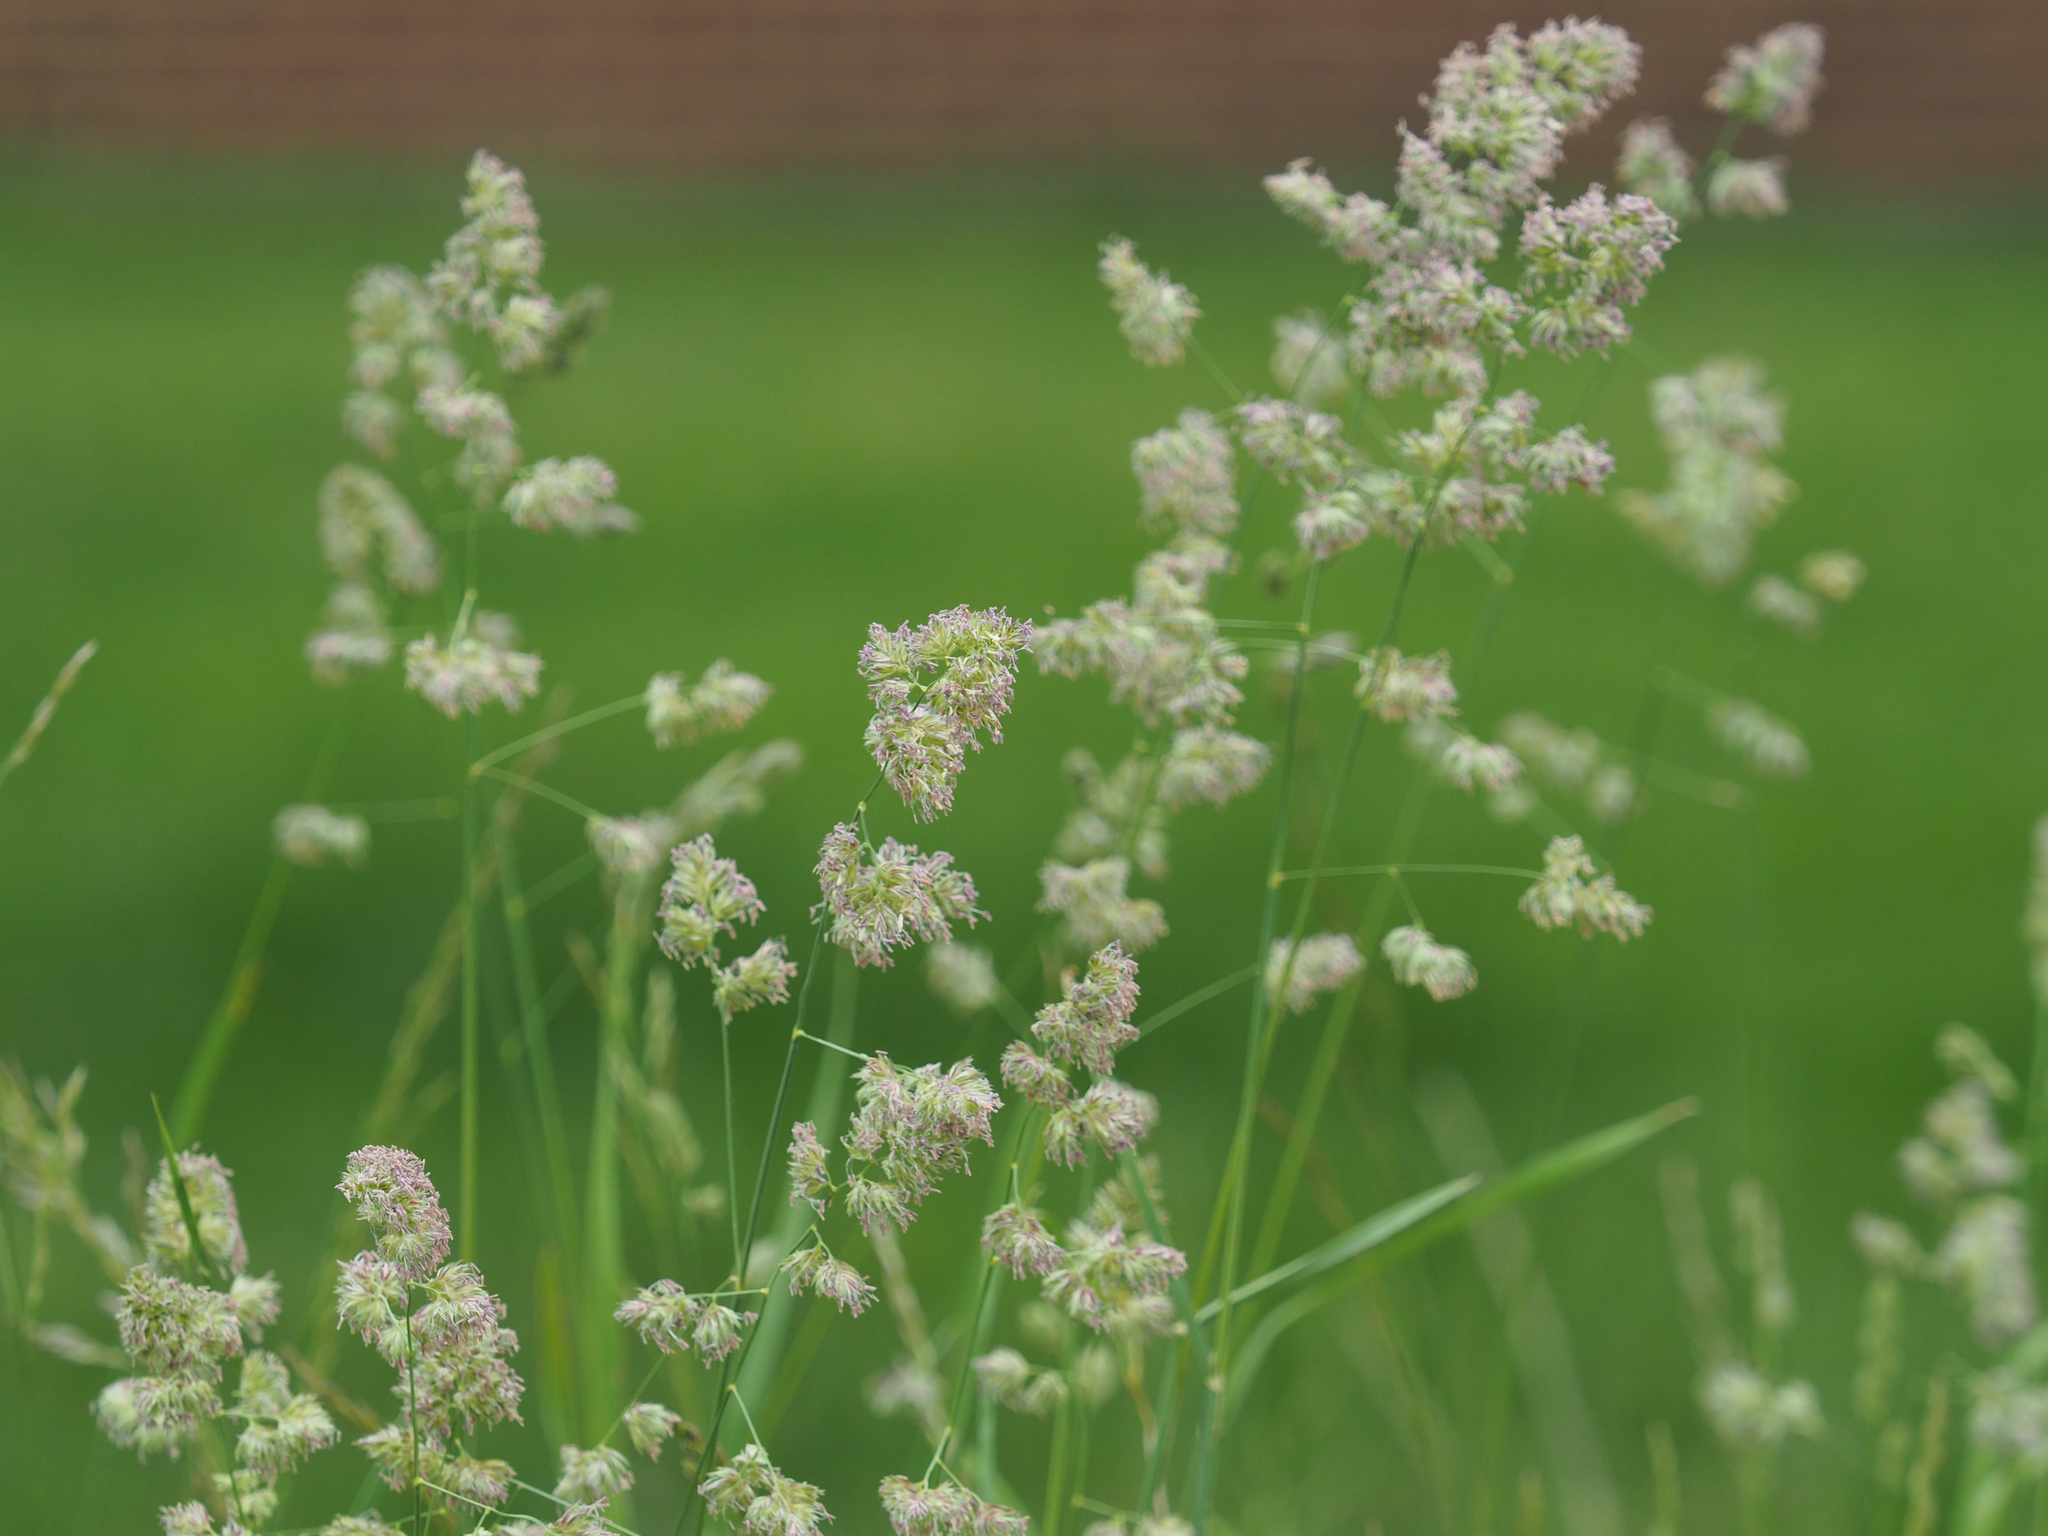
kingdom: Plantae
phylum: Tracheophyta
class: Liliopsida
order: Poales
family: Poaceae
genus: Dactylis
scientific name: Dactylis glomerata
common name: Orchardgrass
